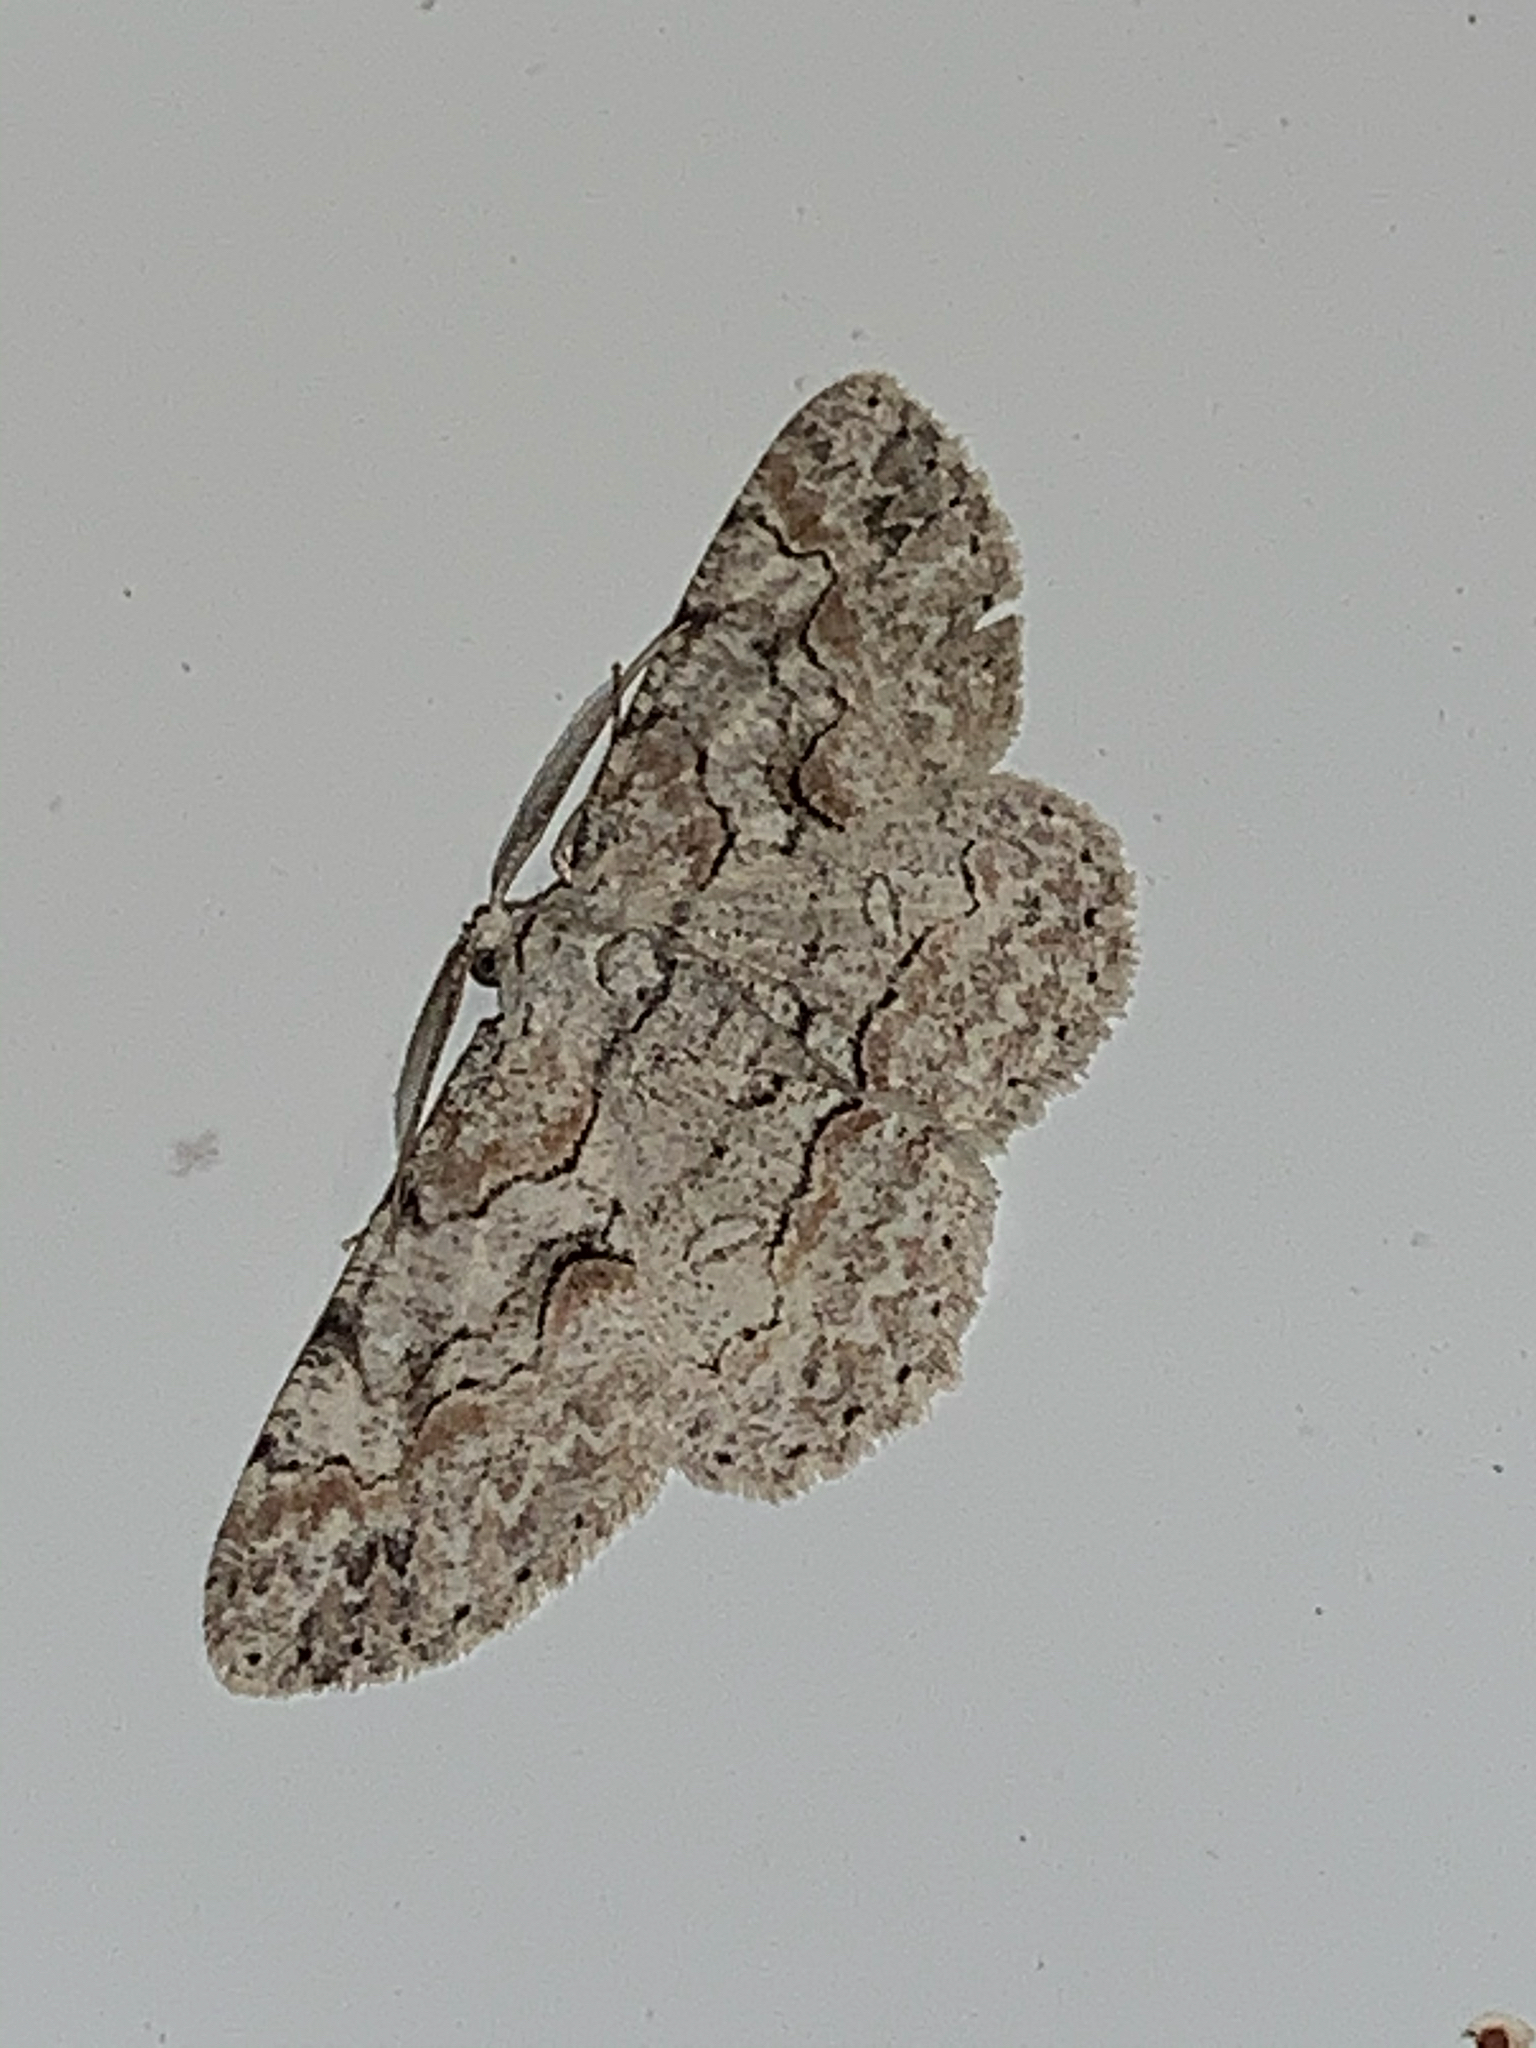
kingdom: Animalia
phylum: Arthropoda
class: Insecta
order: Lepidoptera
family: Geometridae
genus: Iridopsis
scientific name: Iridopsis defectaria
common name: Brown-shaded gray
